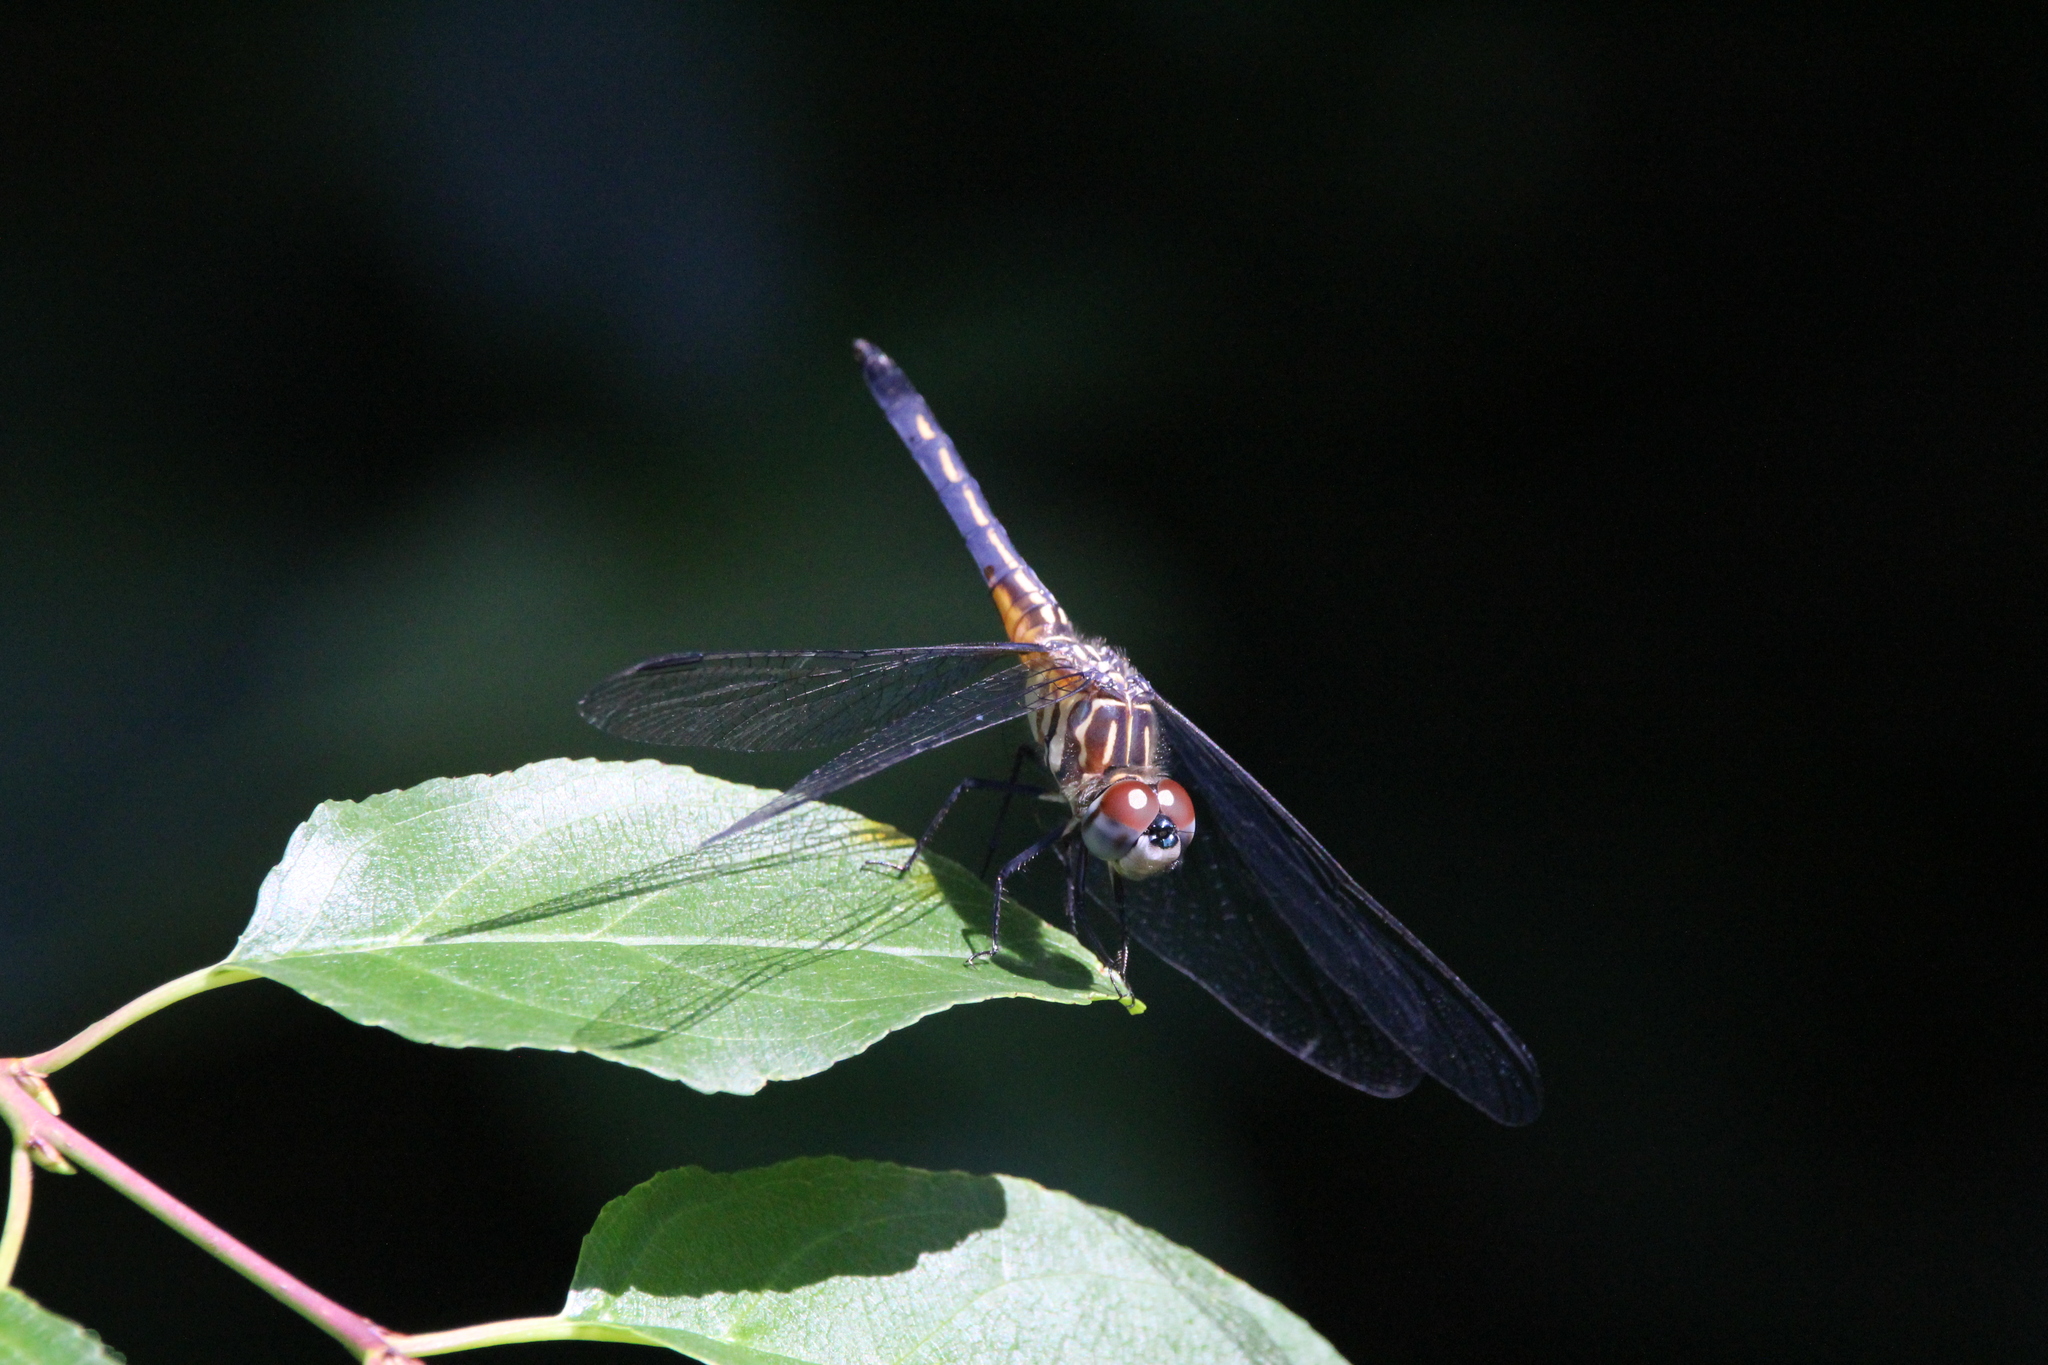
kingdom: Animalia
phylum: Arthropoda
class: Insecta
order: Odonata
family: Libellulidae
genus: Pachydiplax
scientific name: Pachydiplax longipennis
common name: Blue dasher
